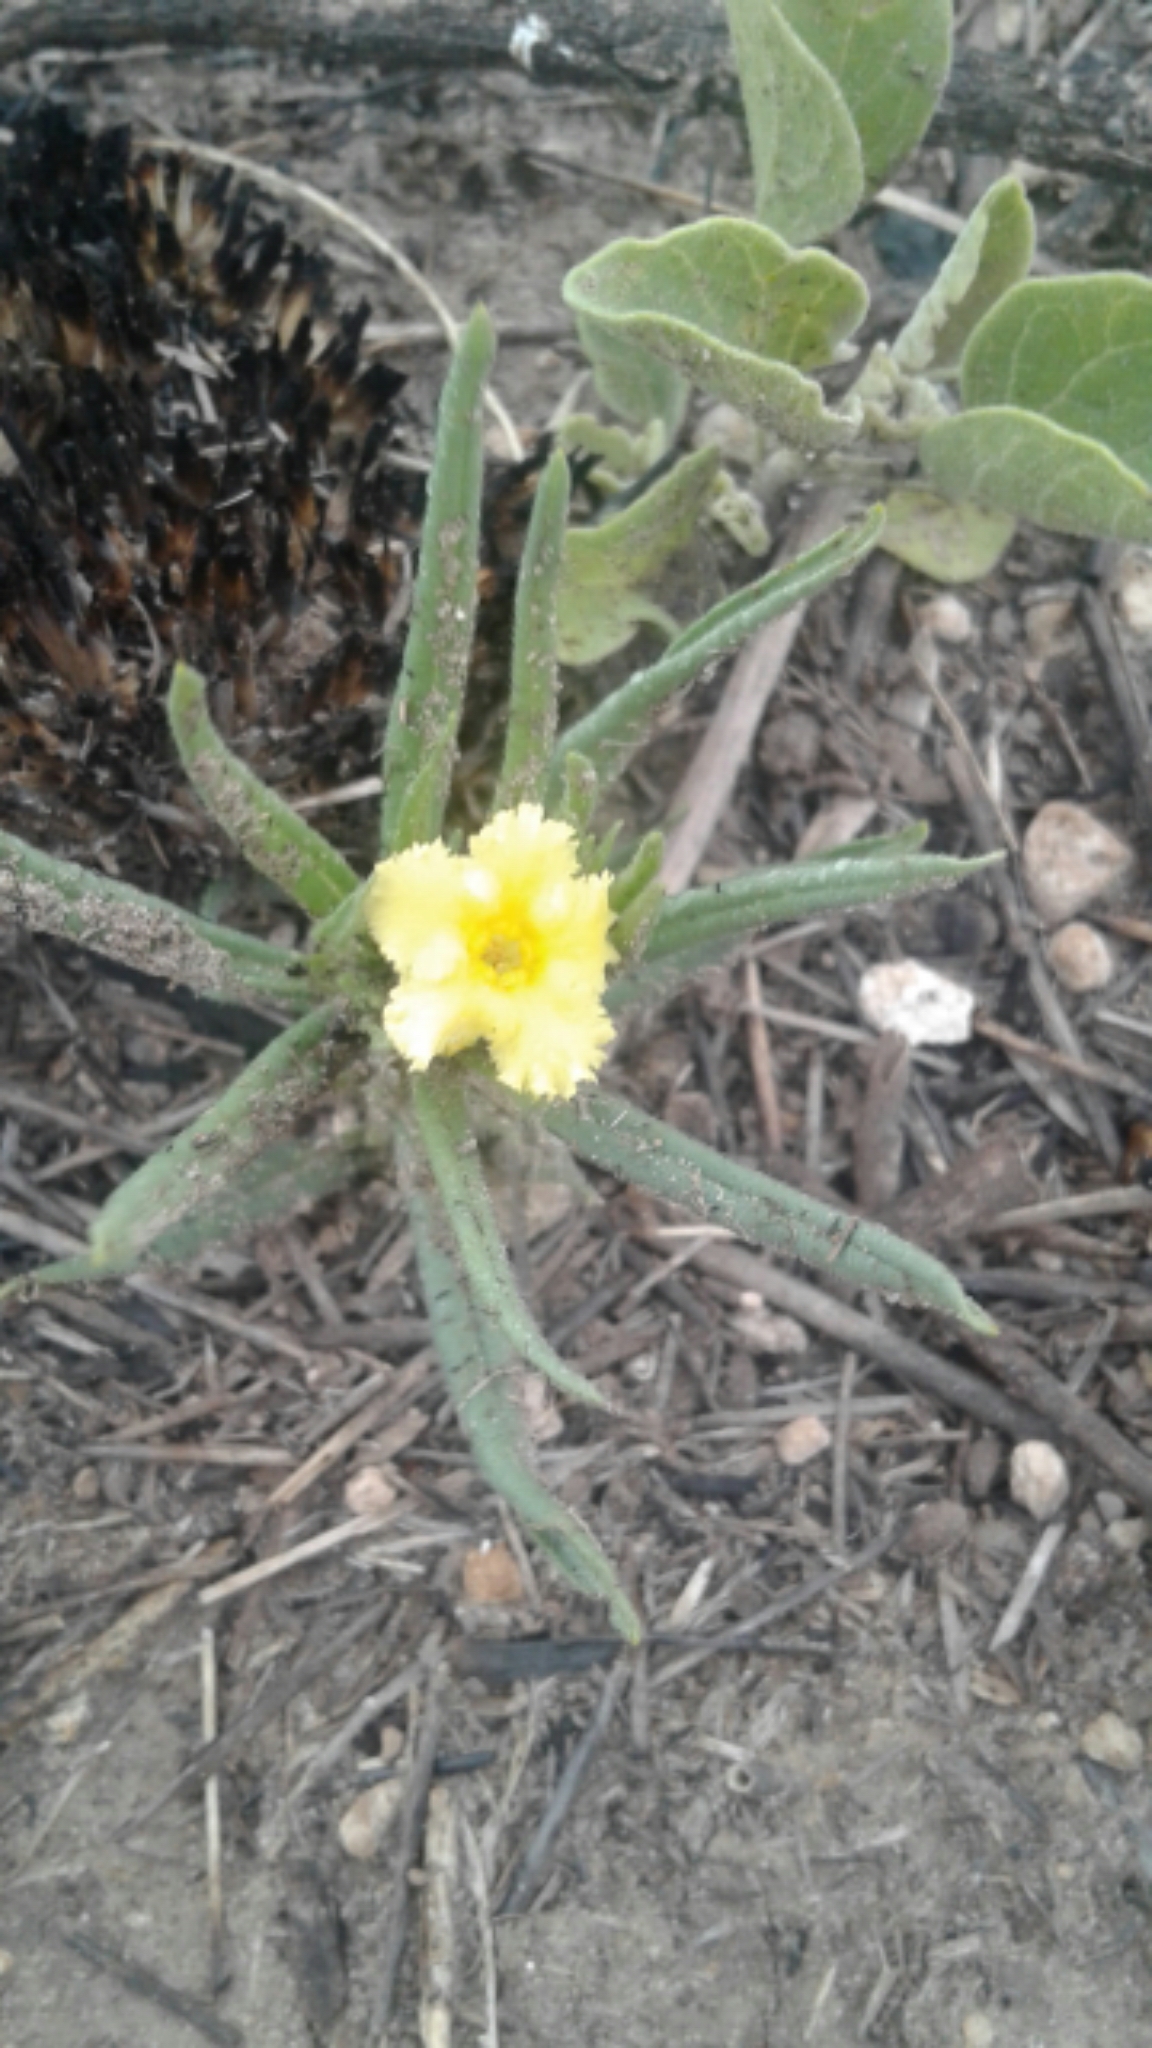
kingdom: Plantae
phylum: Tracheophyta
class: Magnoliopsida
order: Boraginales
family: Boraginaceae
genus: Lithospermum
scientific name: Lithospermum incisum
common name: Fringed gromwell
